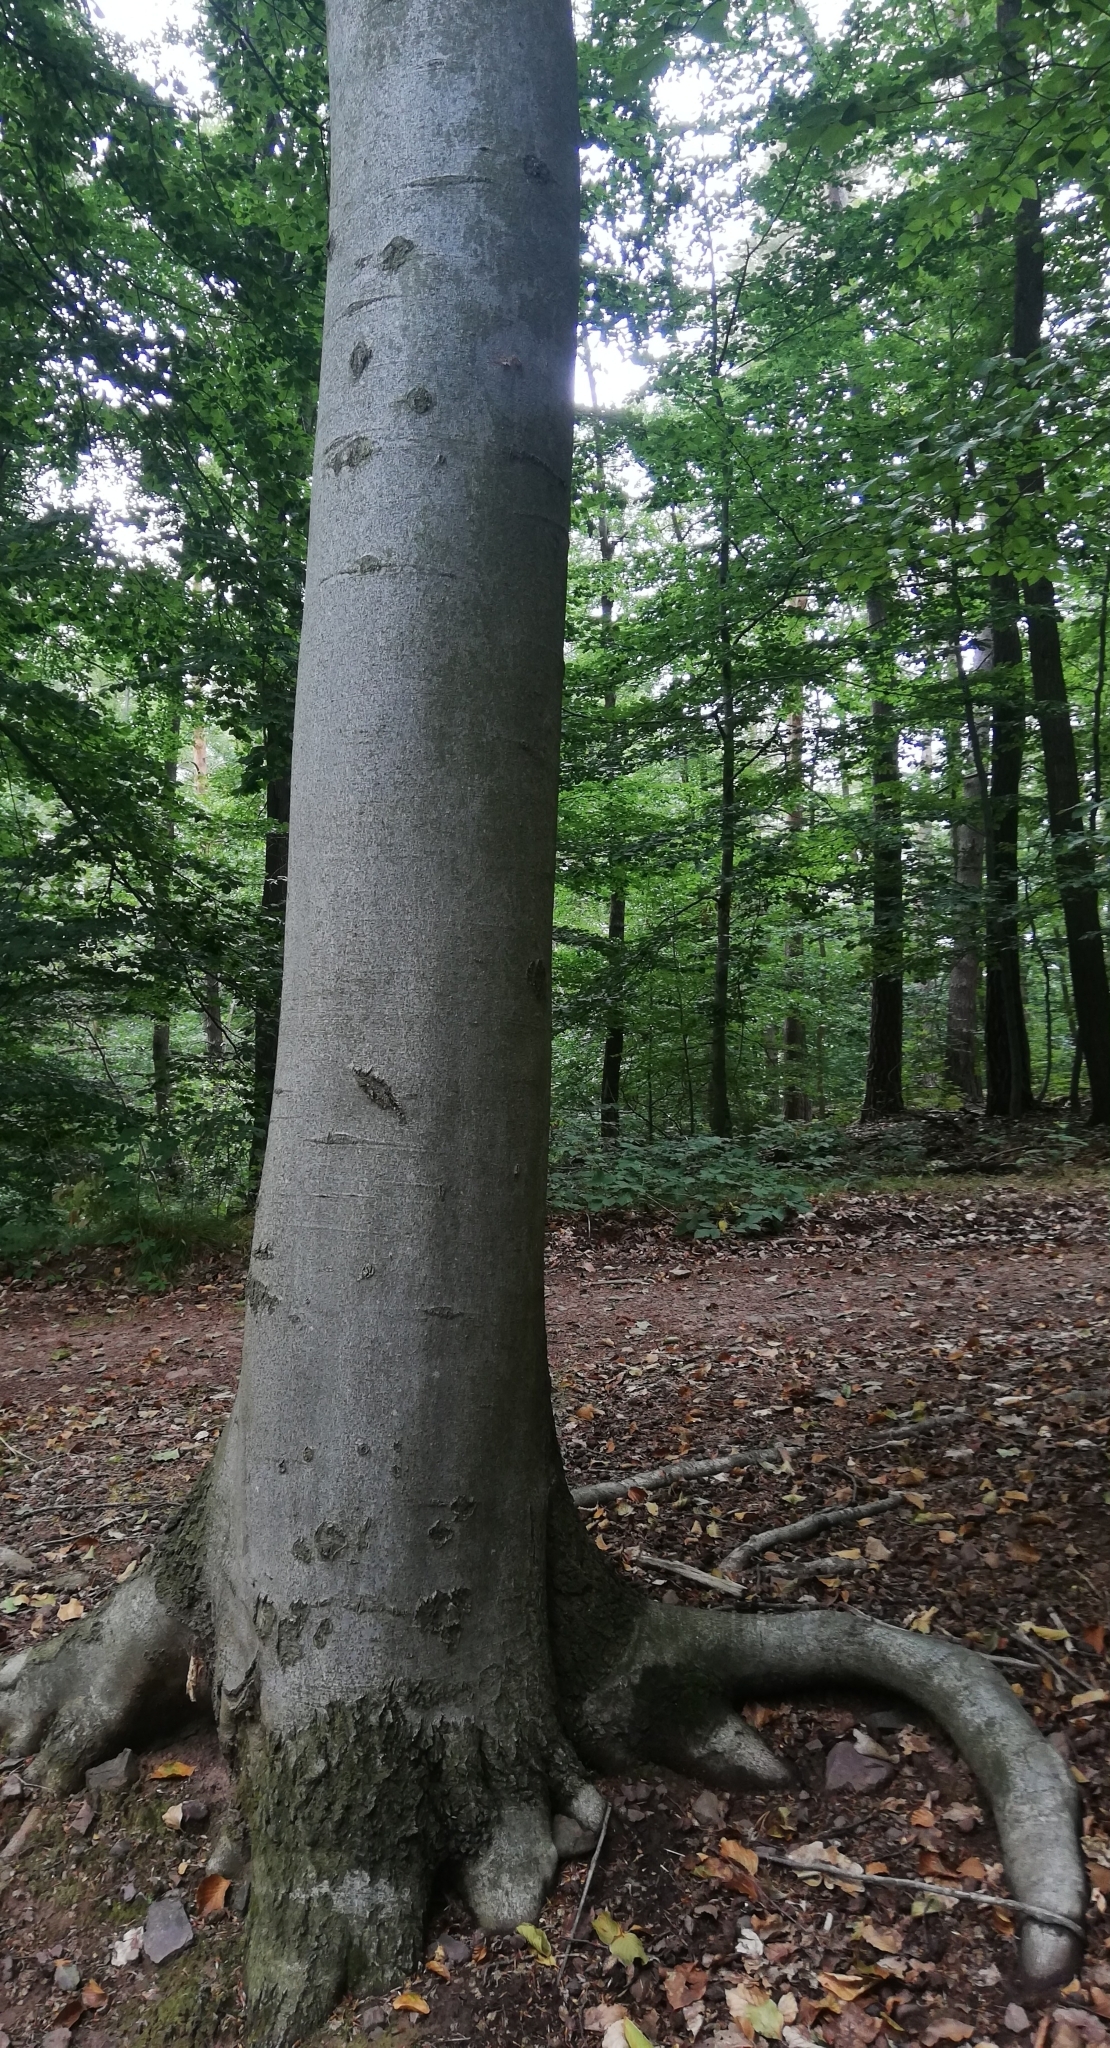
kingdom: Plantae
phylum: Tracheophyta
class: Magnoliopsida
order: Fagales
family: Fagaceae
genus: Fagus
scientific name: Fagus sylvatica
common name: Beech
